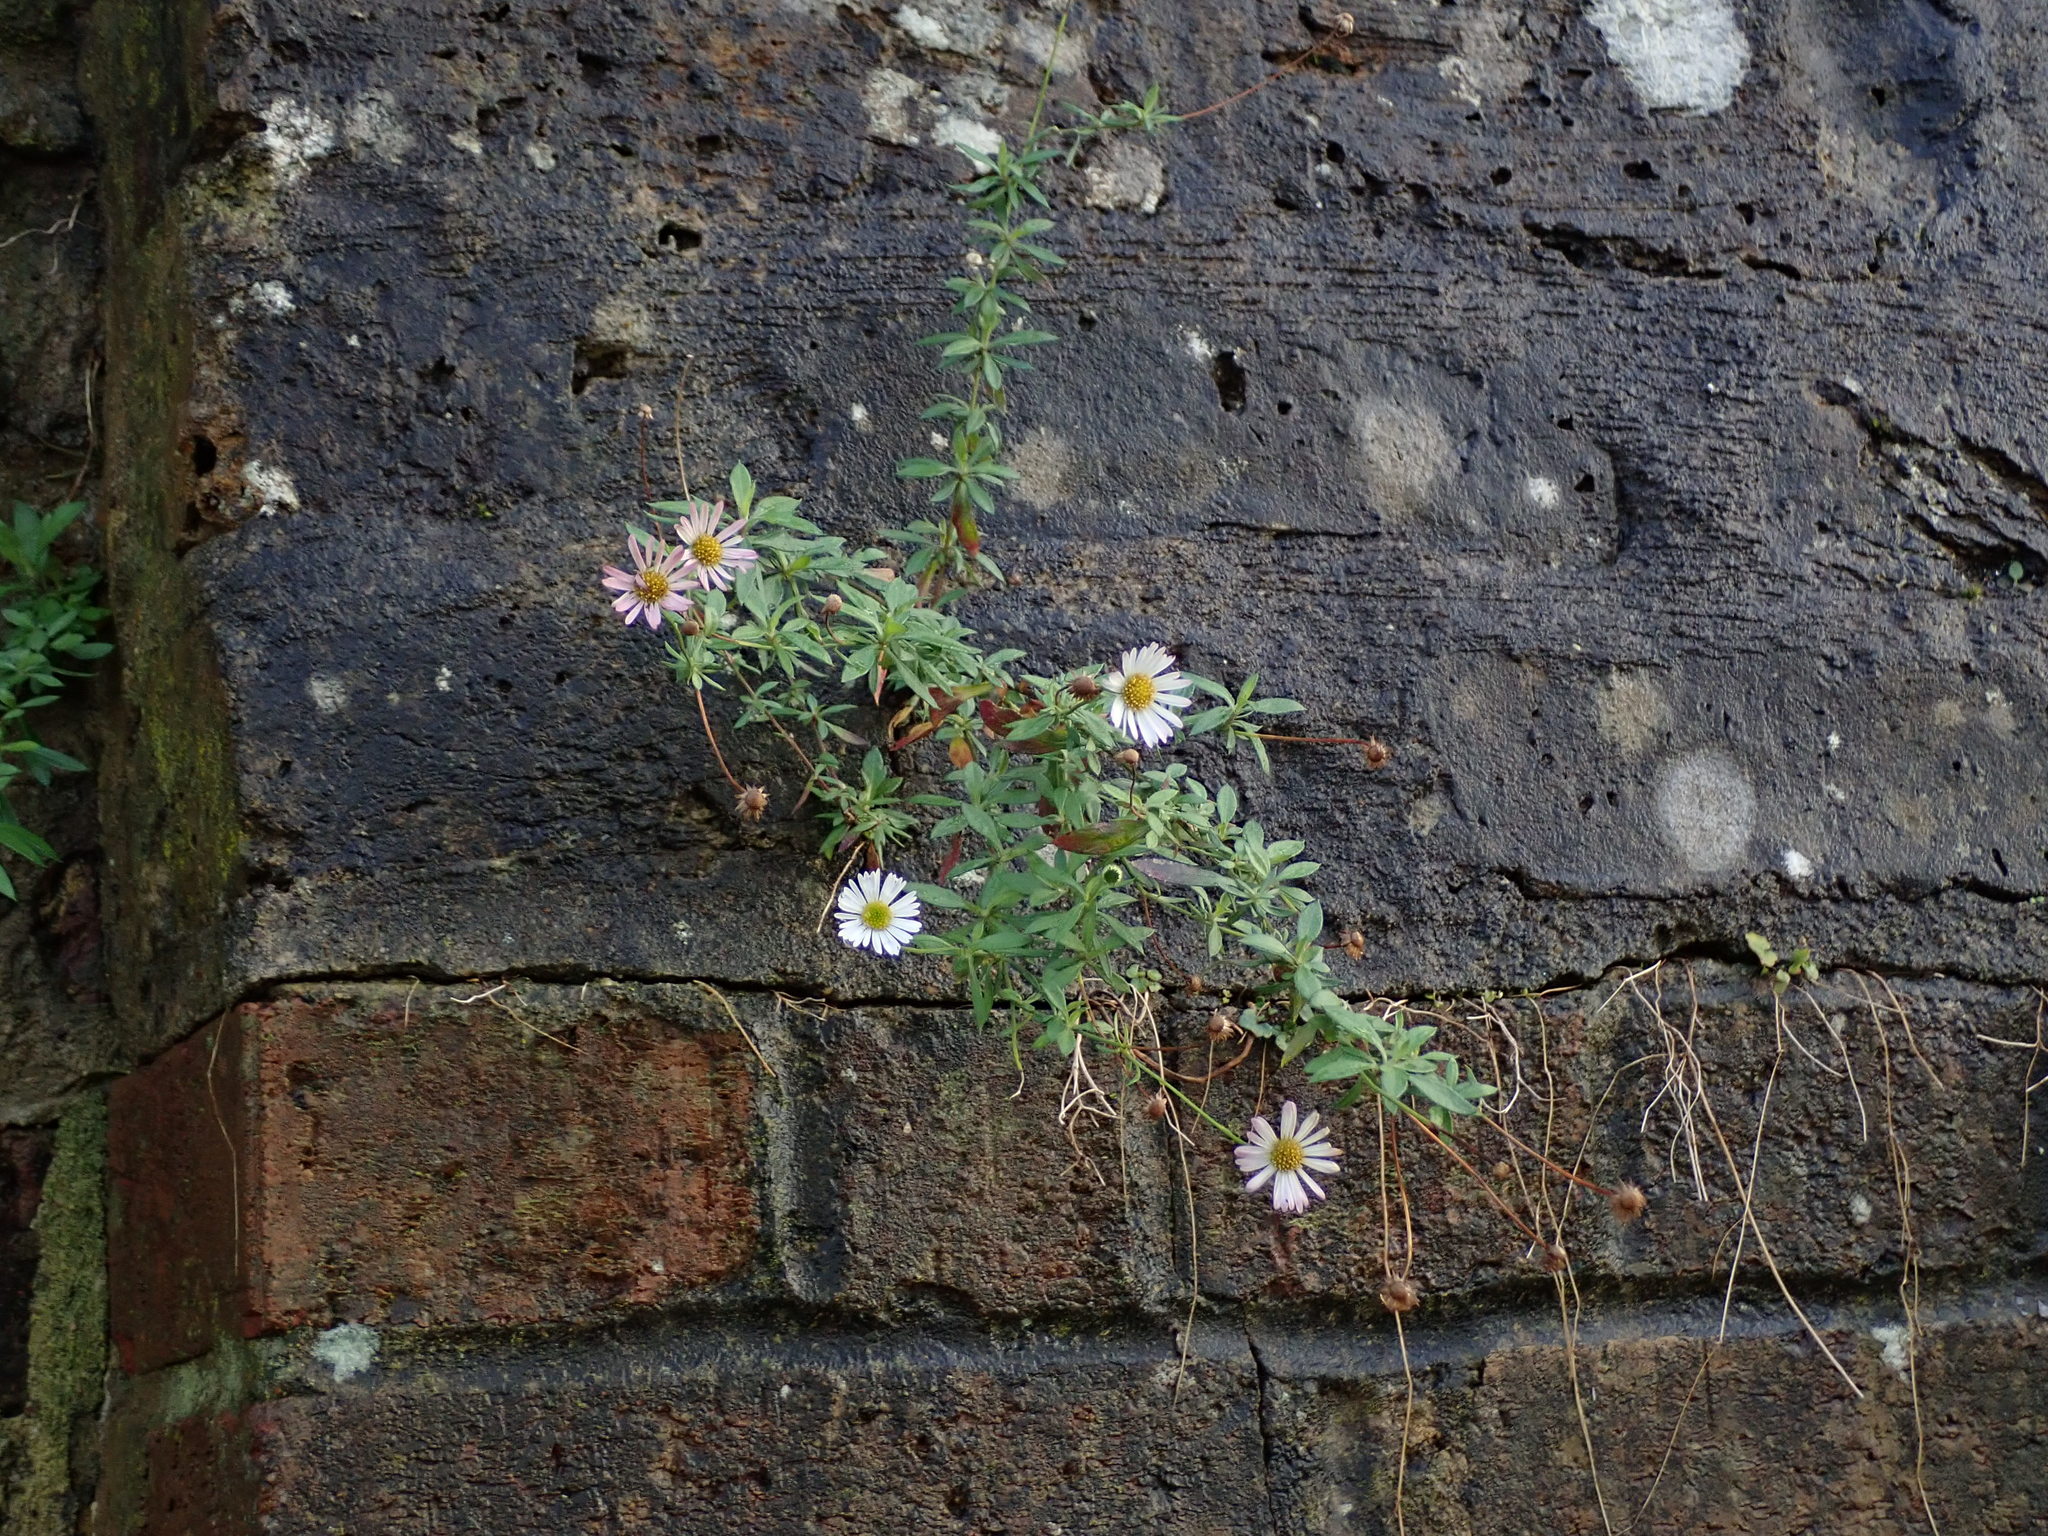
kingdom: Plantae
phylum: Tracheophyta
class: Magnoliopsida
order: Asterales
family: Asteraceae
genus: Erigeron
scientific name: Erigeron karvinskianus
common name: Mexican fleabane
